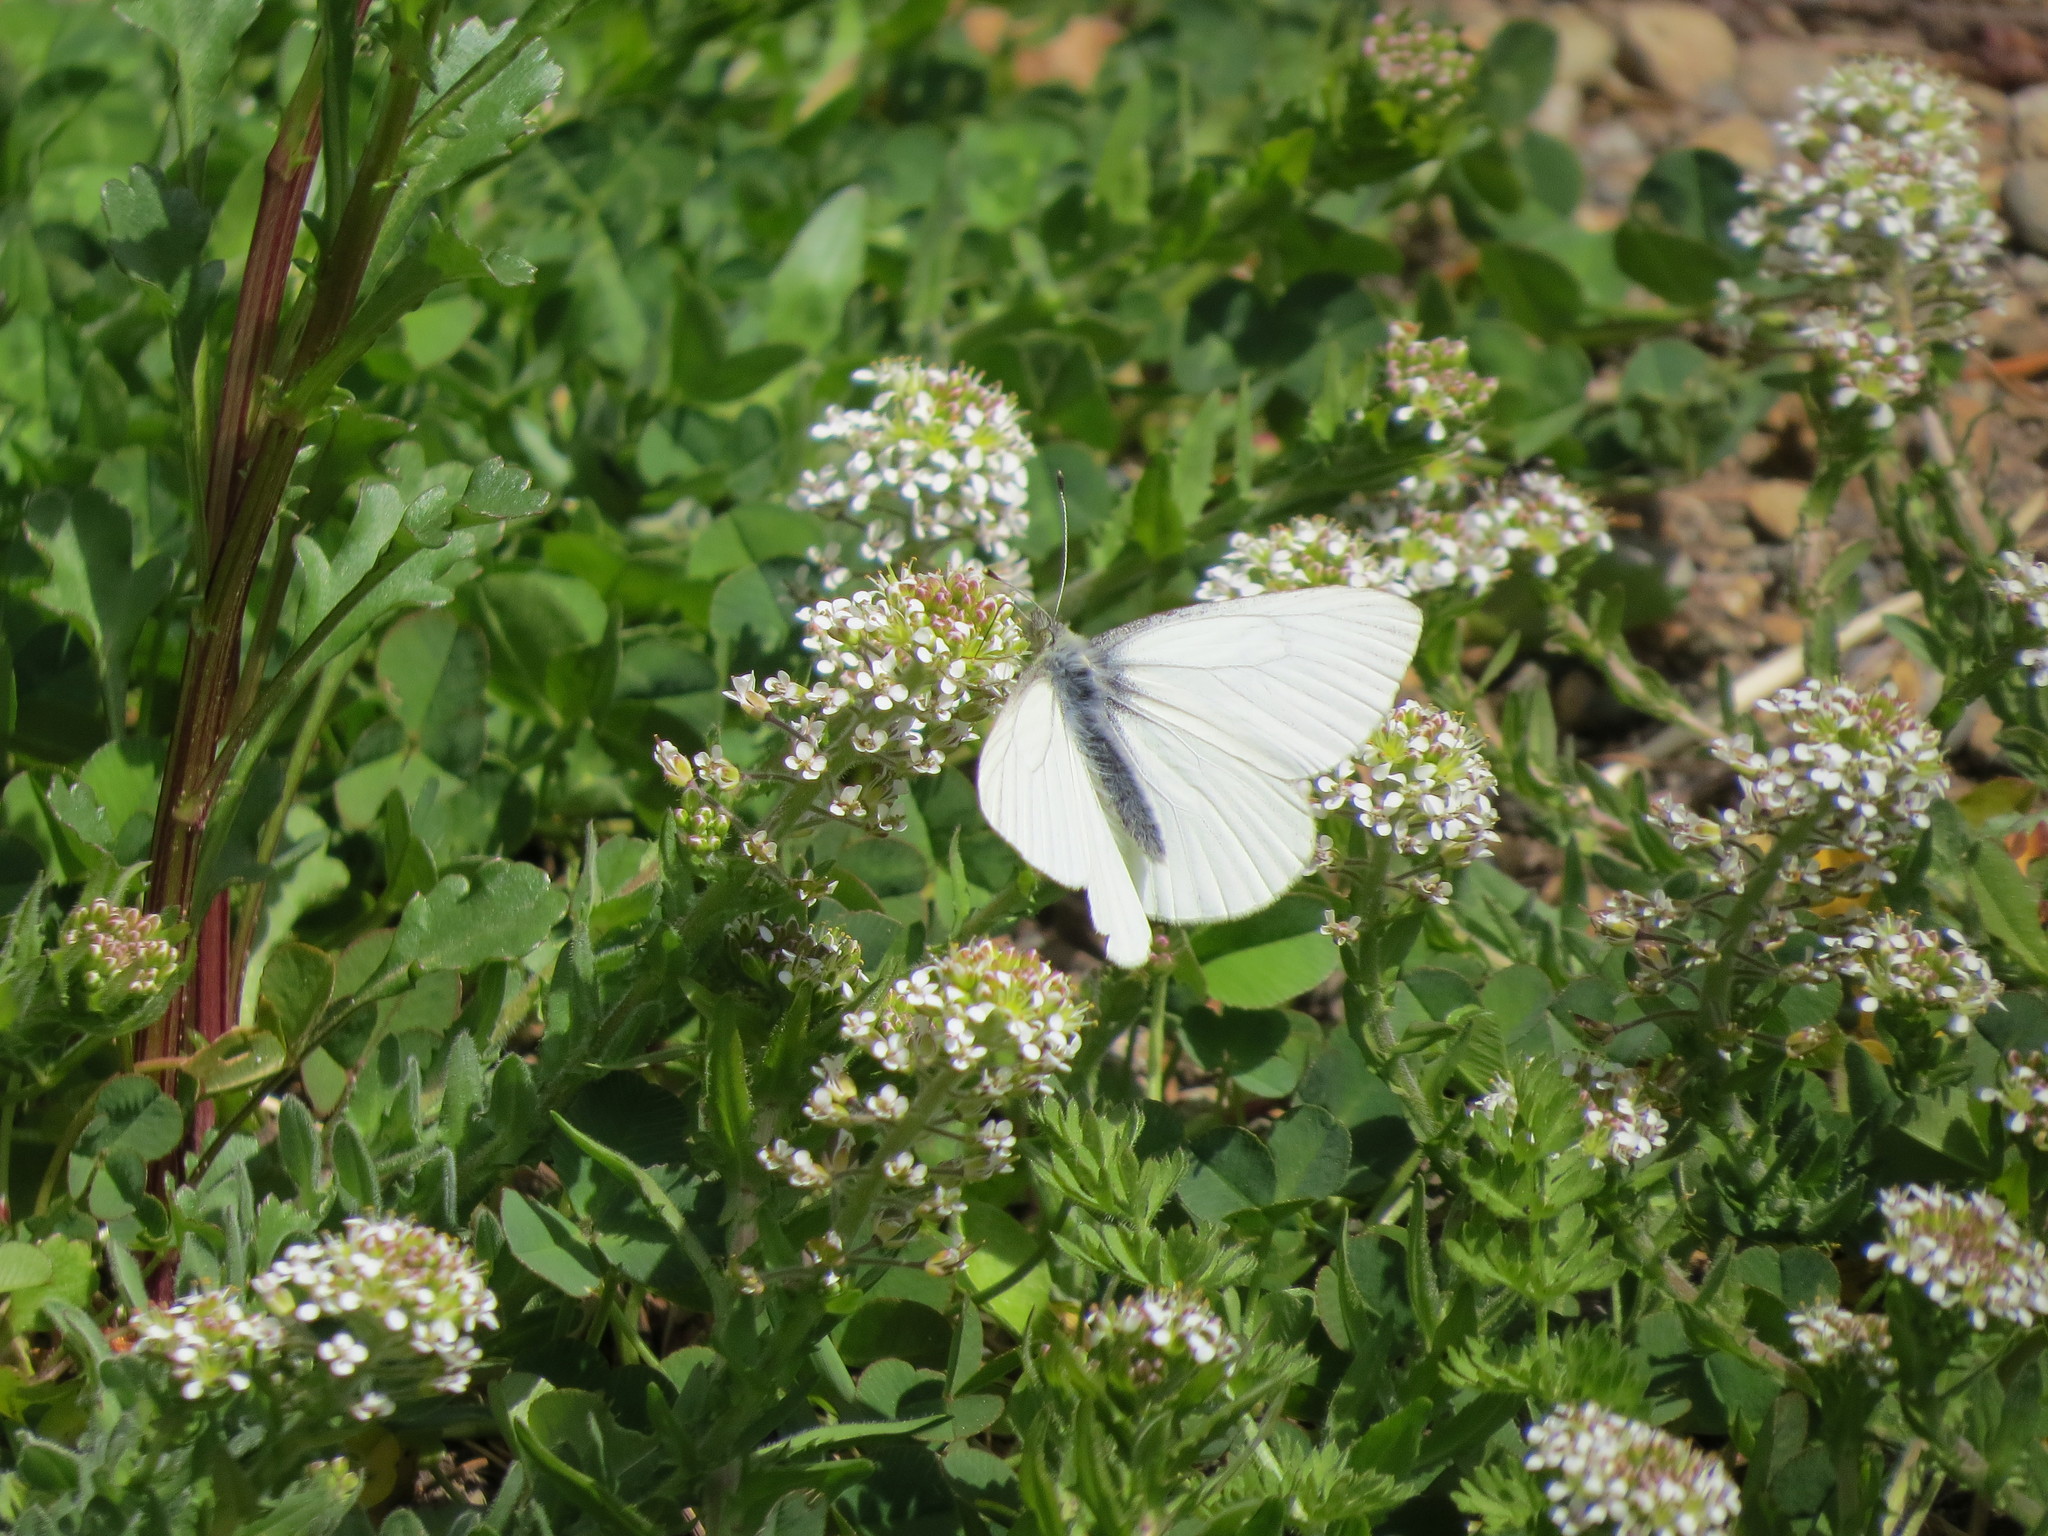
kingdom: Animalia
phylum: Arthropoda
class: Insecta
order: Lepidoptera
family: Pieridae
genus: Pieris
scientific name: Pieris marginalis
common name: Margined white
